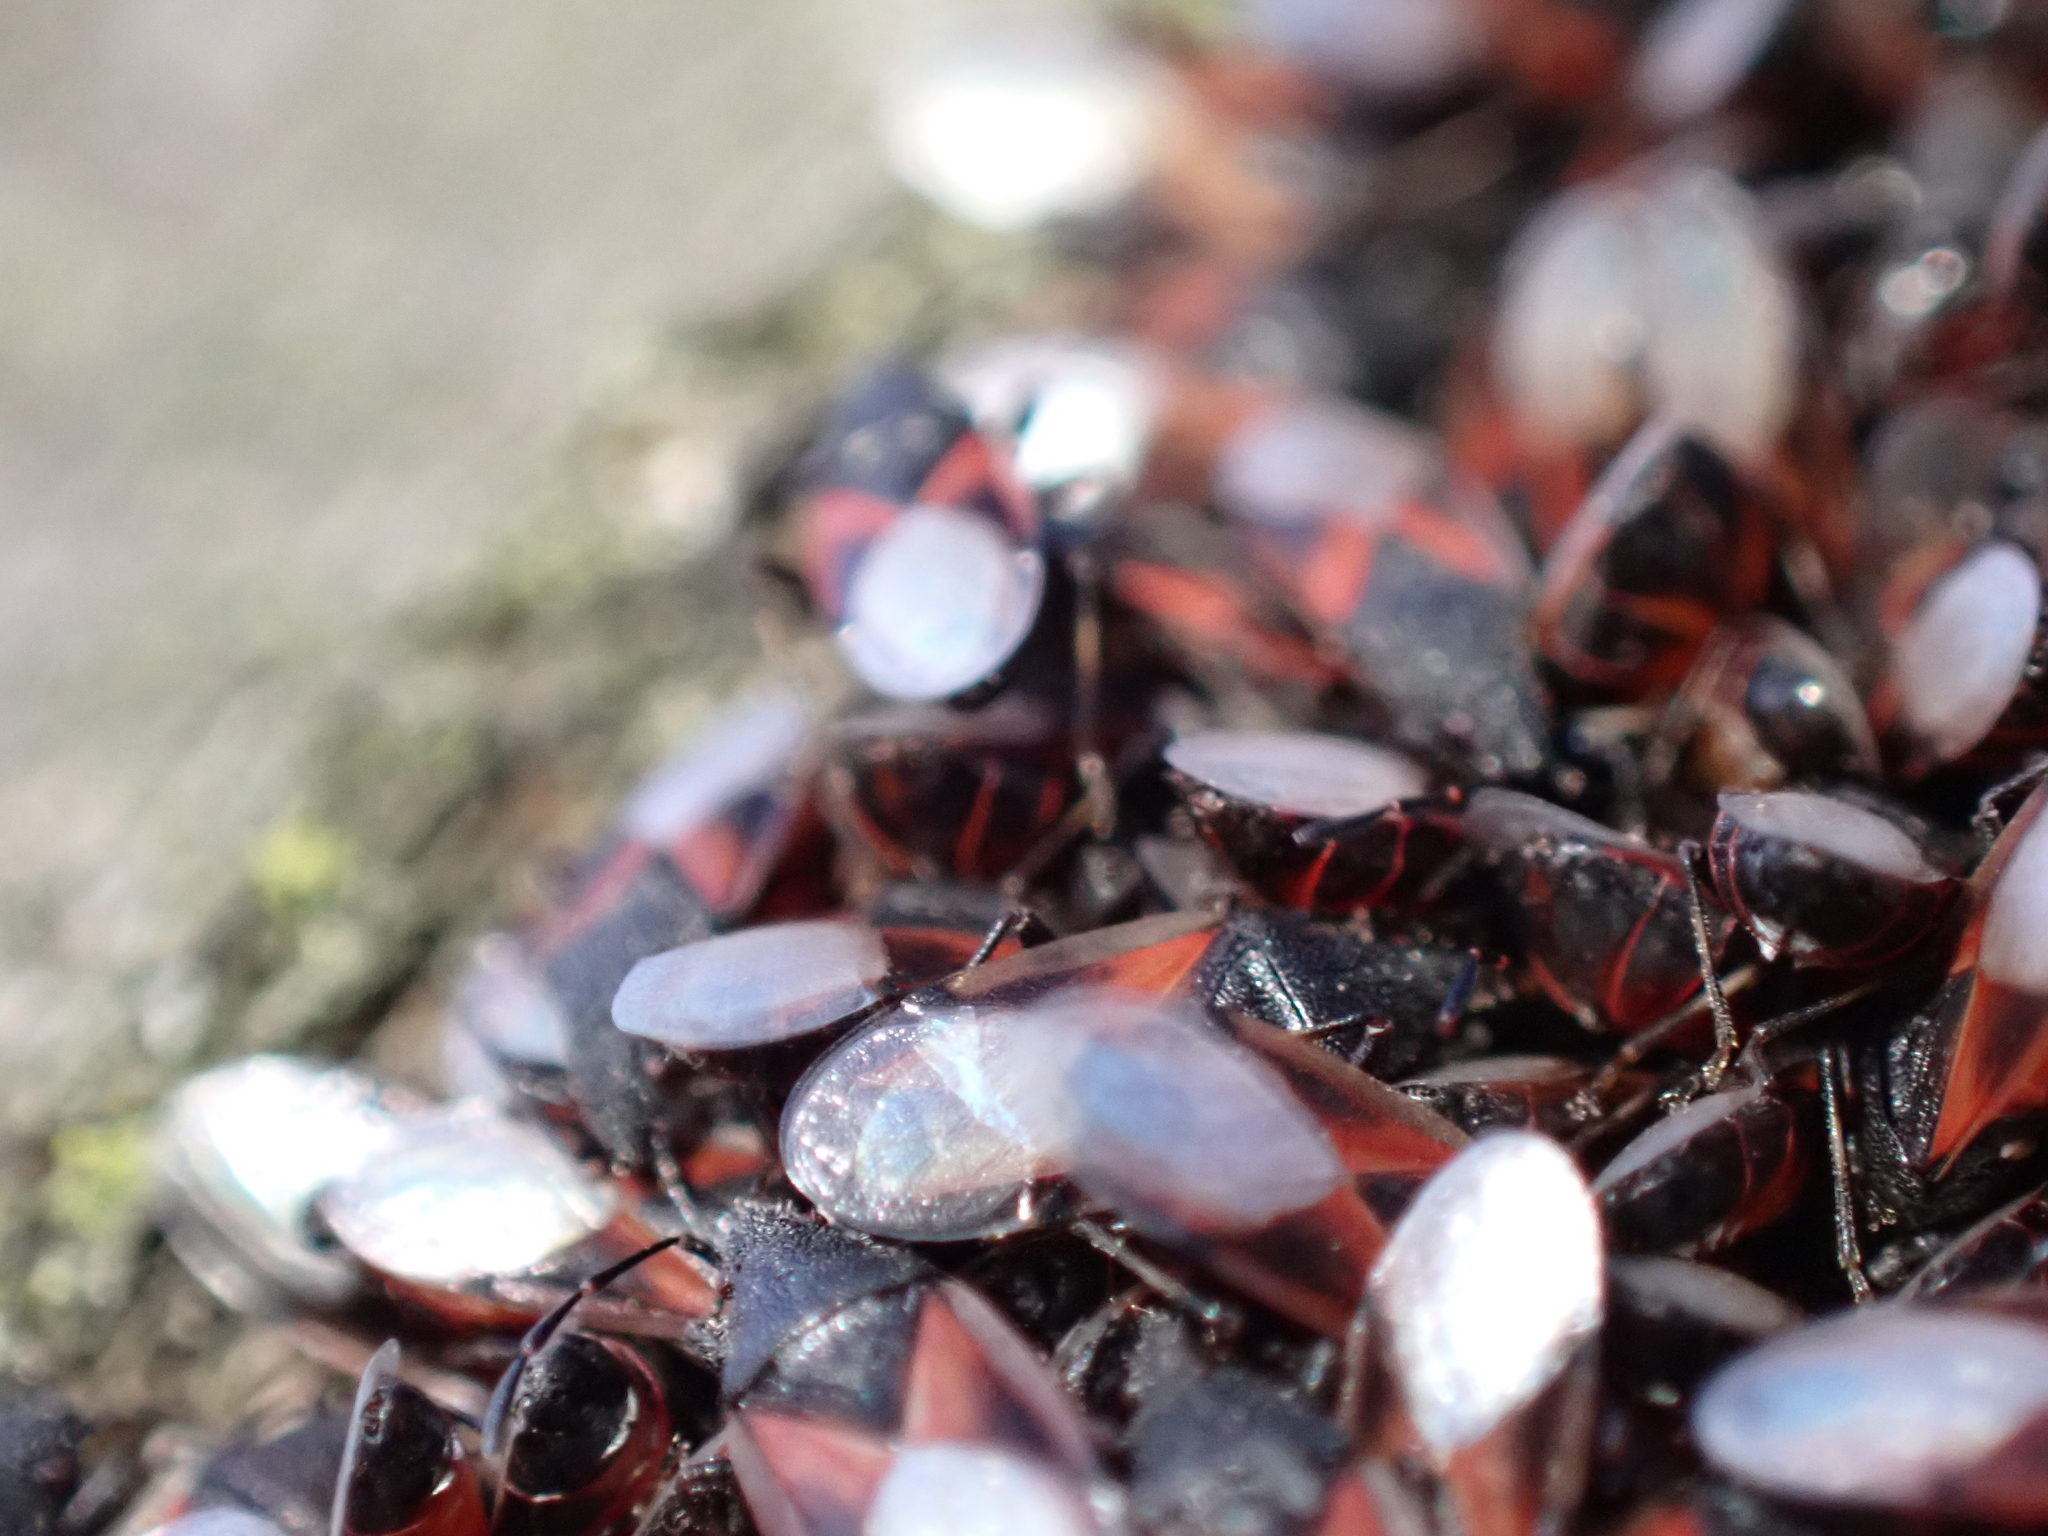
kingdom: Animalia
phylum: Arthropoda
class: Insecta
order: Hemiptera
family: Oxycarenidae
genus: Oxycarenus
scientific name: Oxycarenus lavaterae
